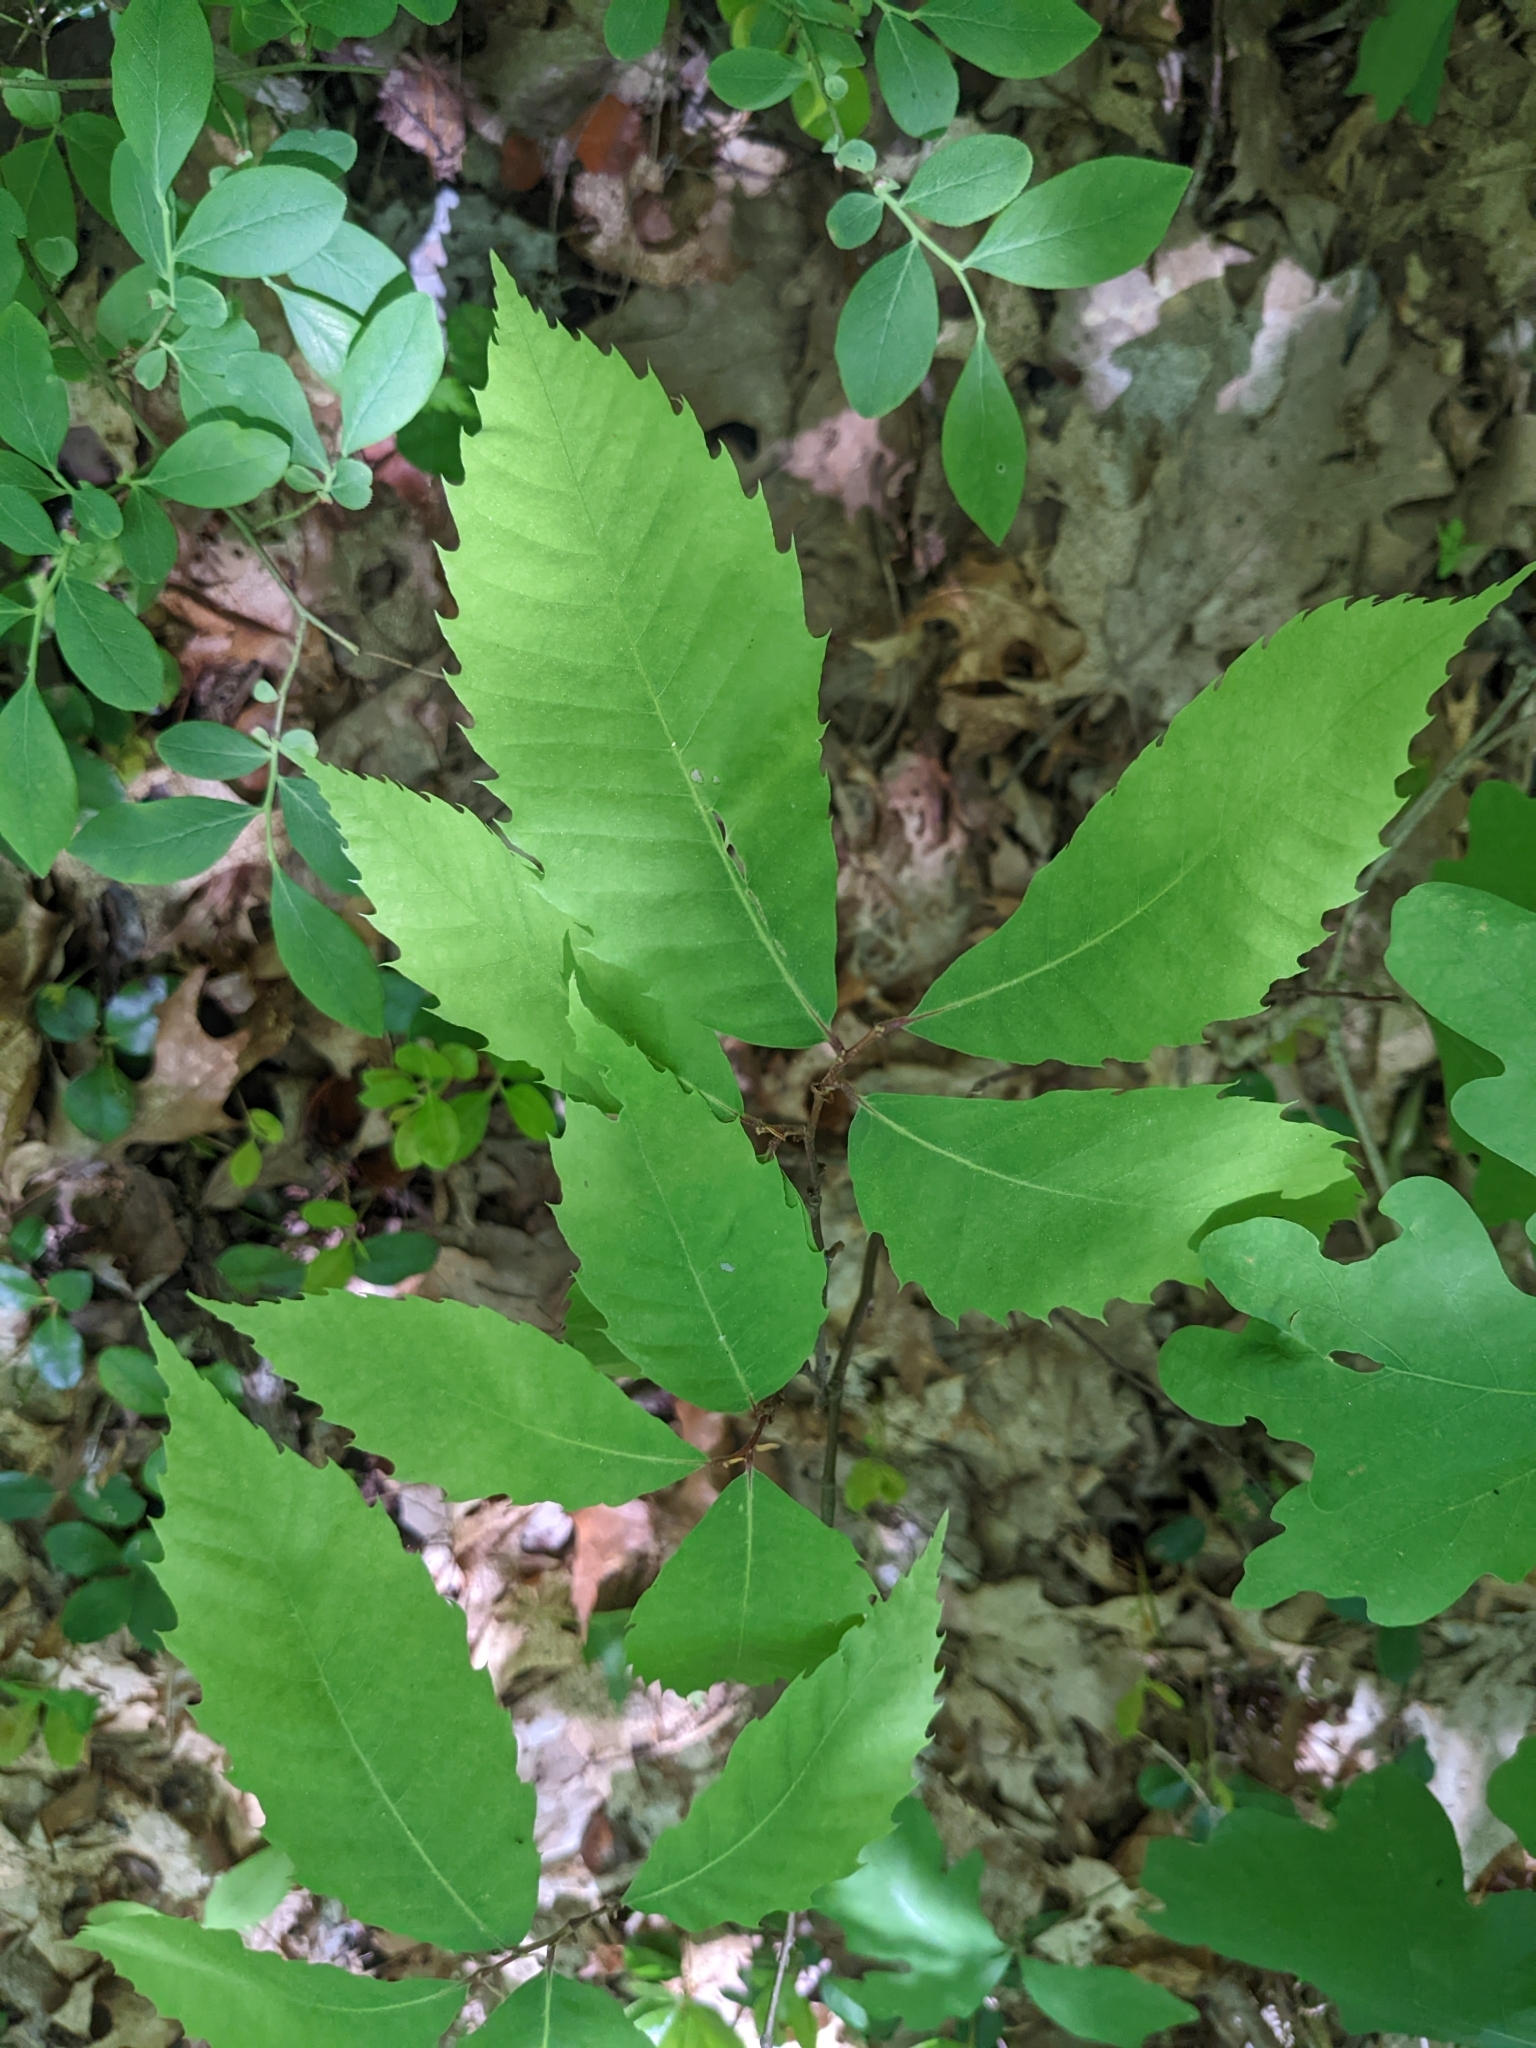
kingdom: Plantae
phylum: Tracheophyta
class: Magnoliopsida
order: Fagales
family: Fagaceae
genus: Castanea
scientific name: Castanea dentata
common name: American chestnut
